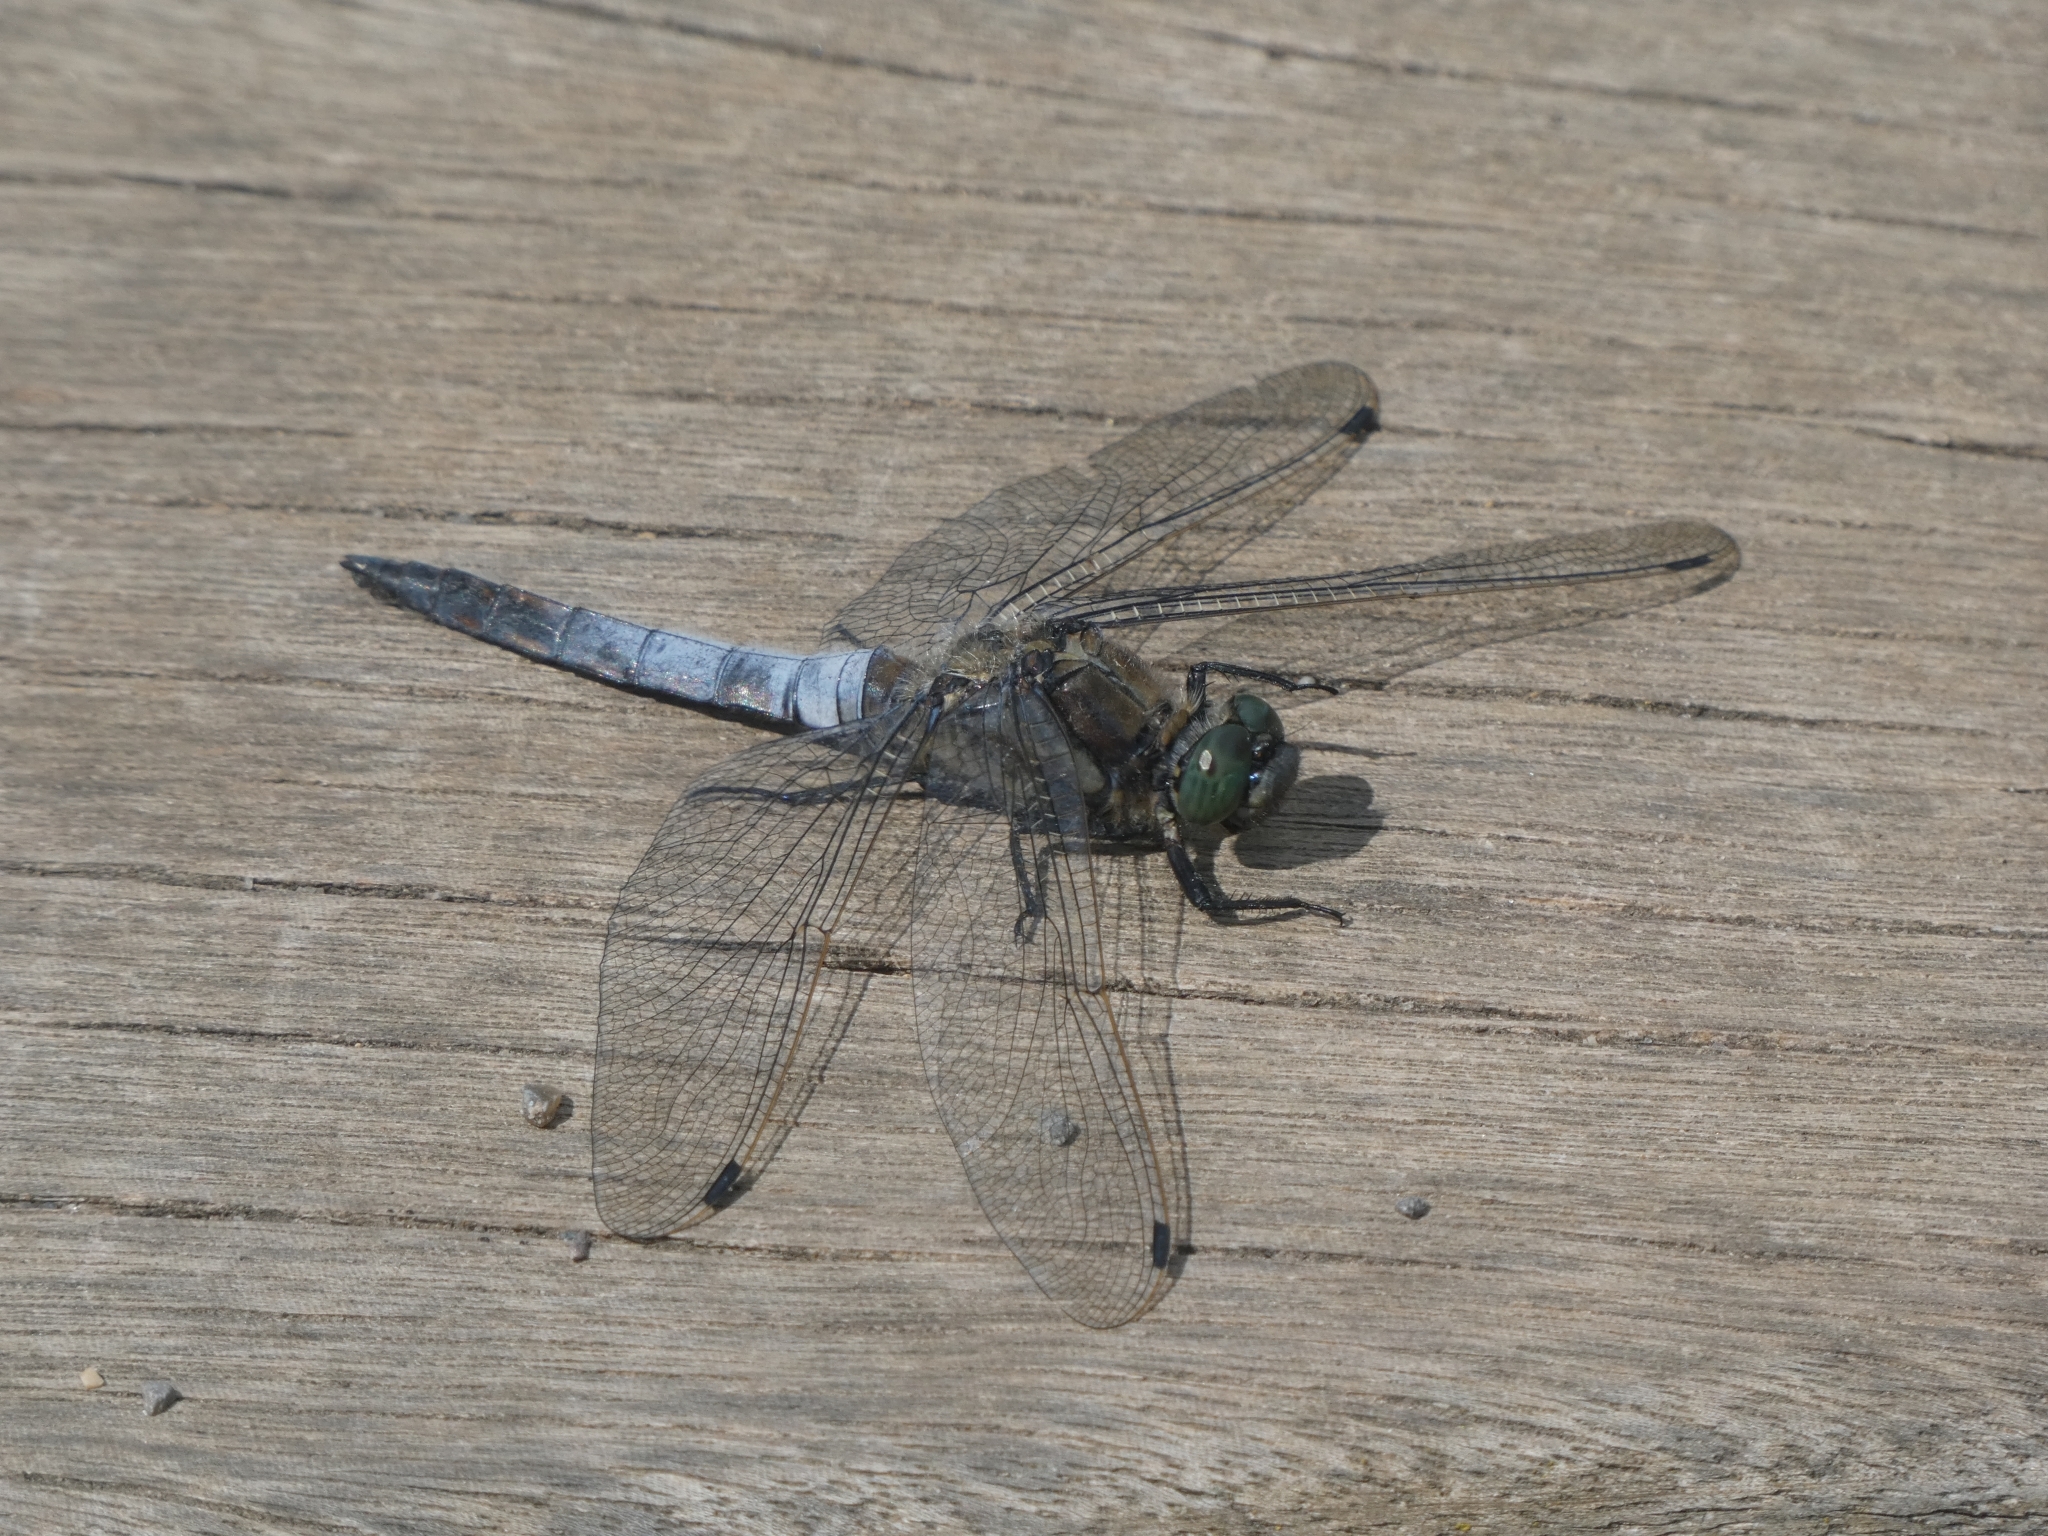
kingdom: Animalia
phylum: Arthropoda
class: Insecta
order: Odonata
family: Libellulidae
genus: Orthetrum
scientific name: Orthetrum cancellatum
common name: Black-tailed skimmer
